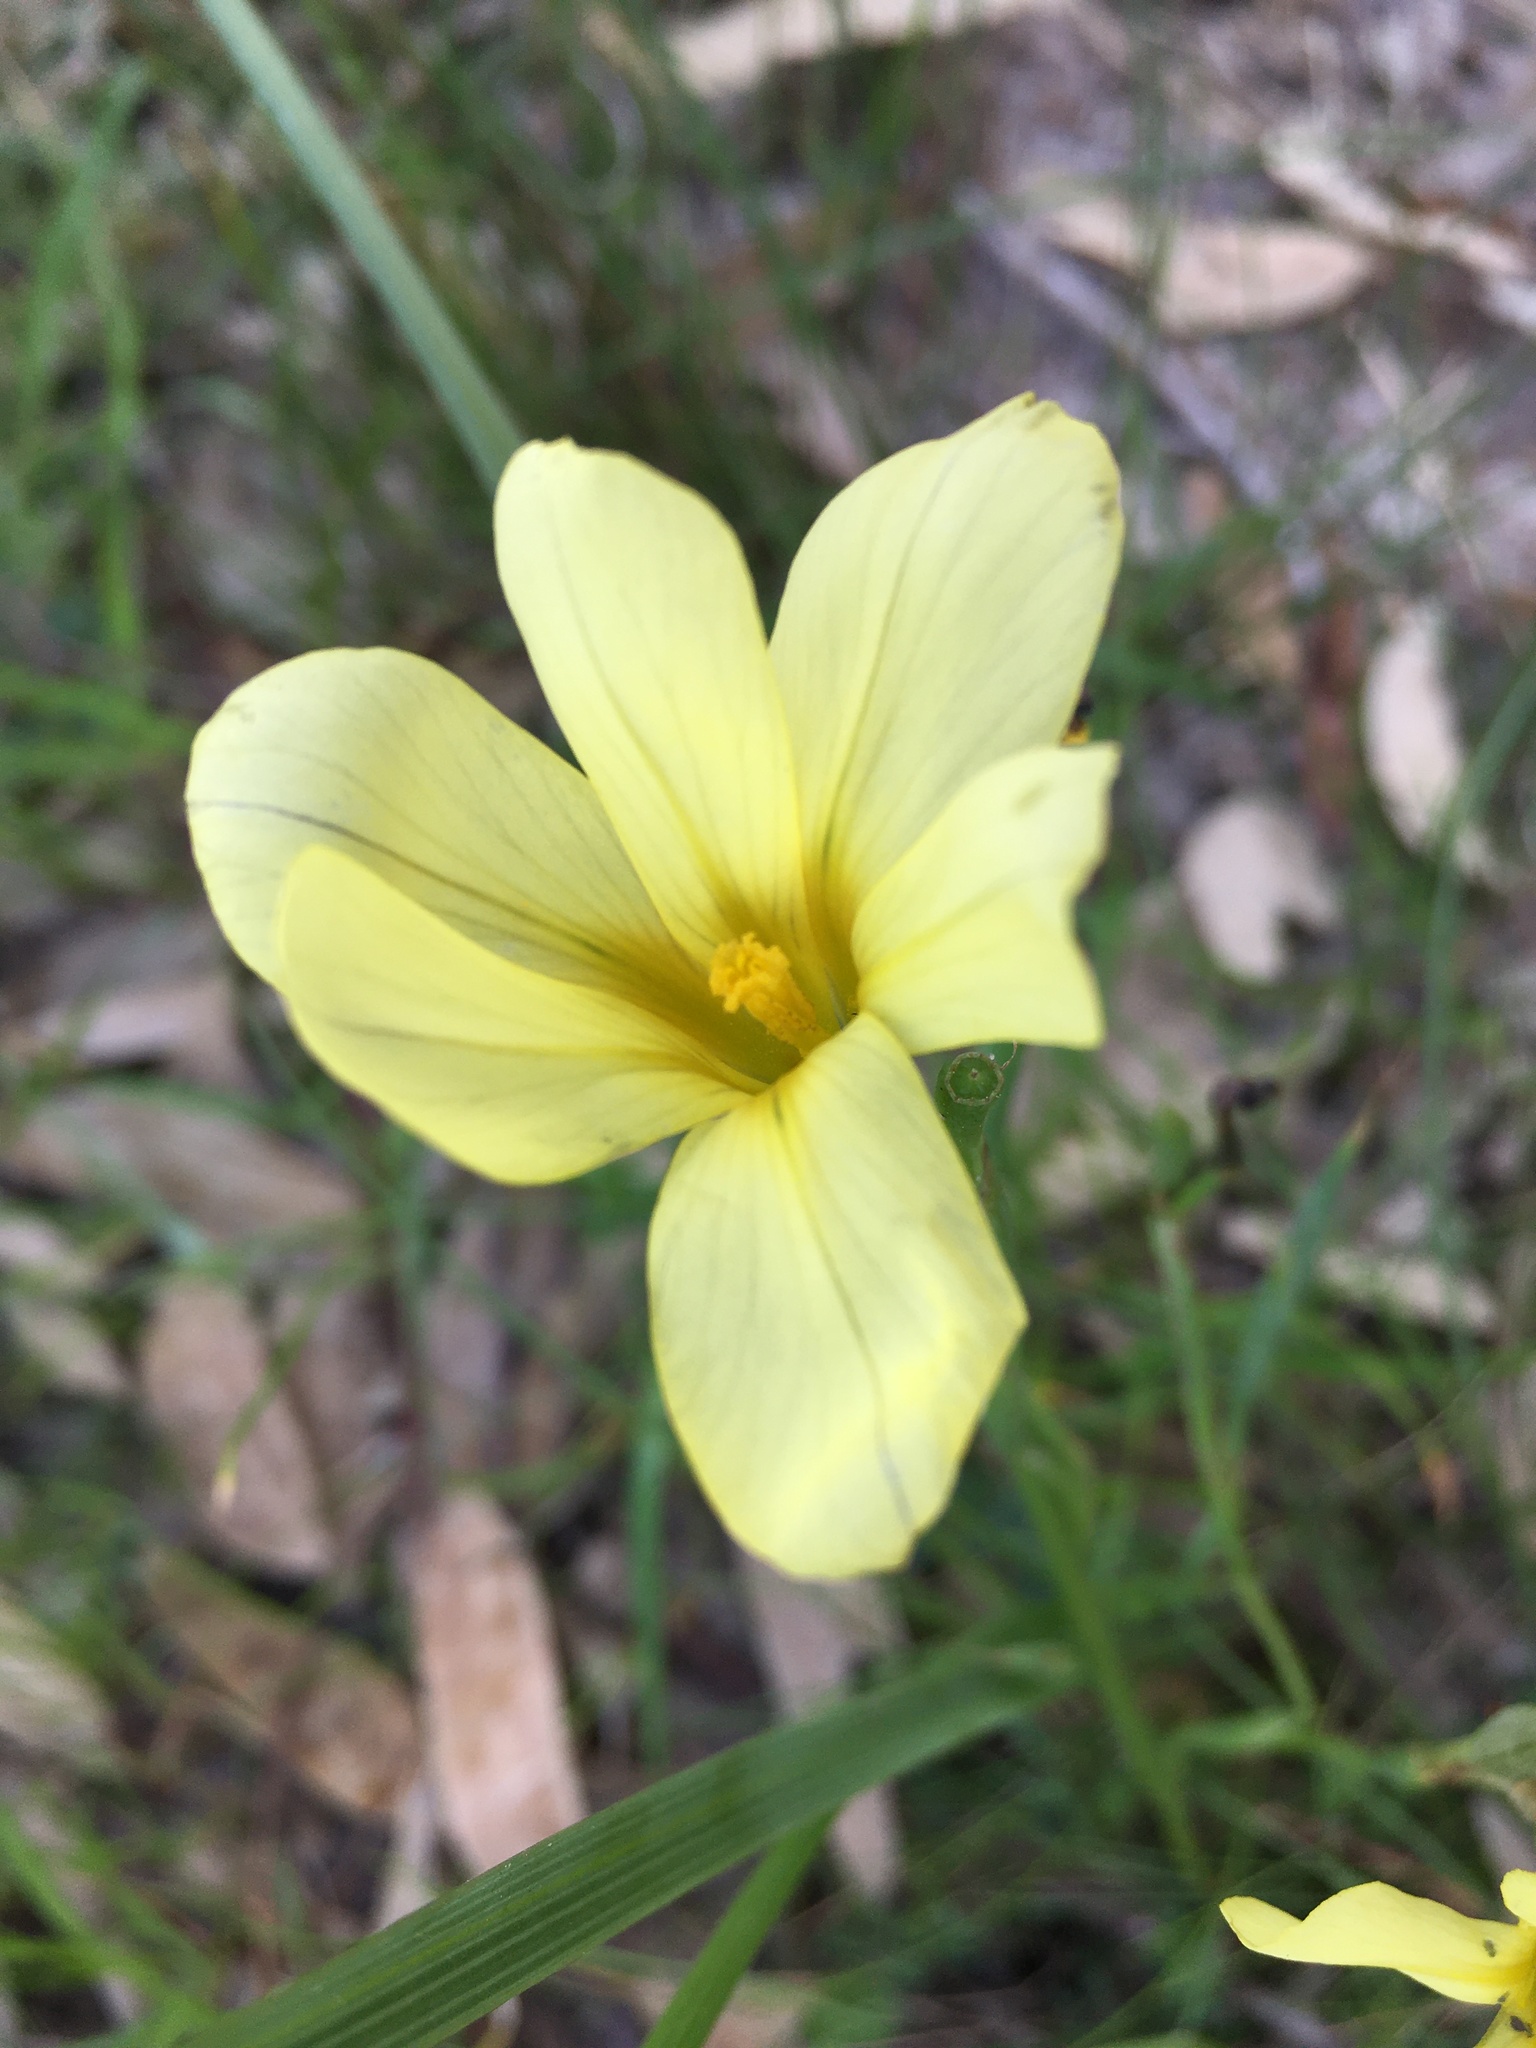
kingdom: Plantae
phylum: Tracheophyta
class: Liliopsida
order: Asparagales
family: Iridaceae
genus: Moraea
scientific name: Moraea collina
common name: Cape-tulip
